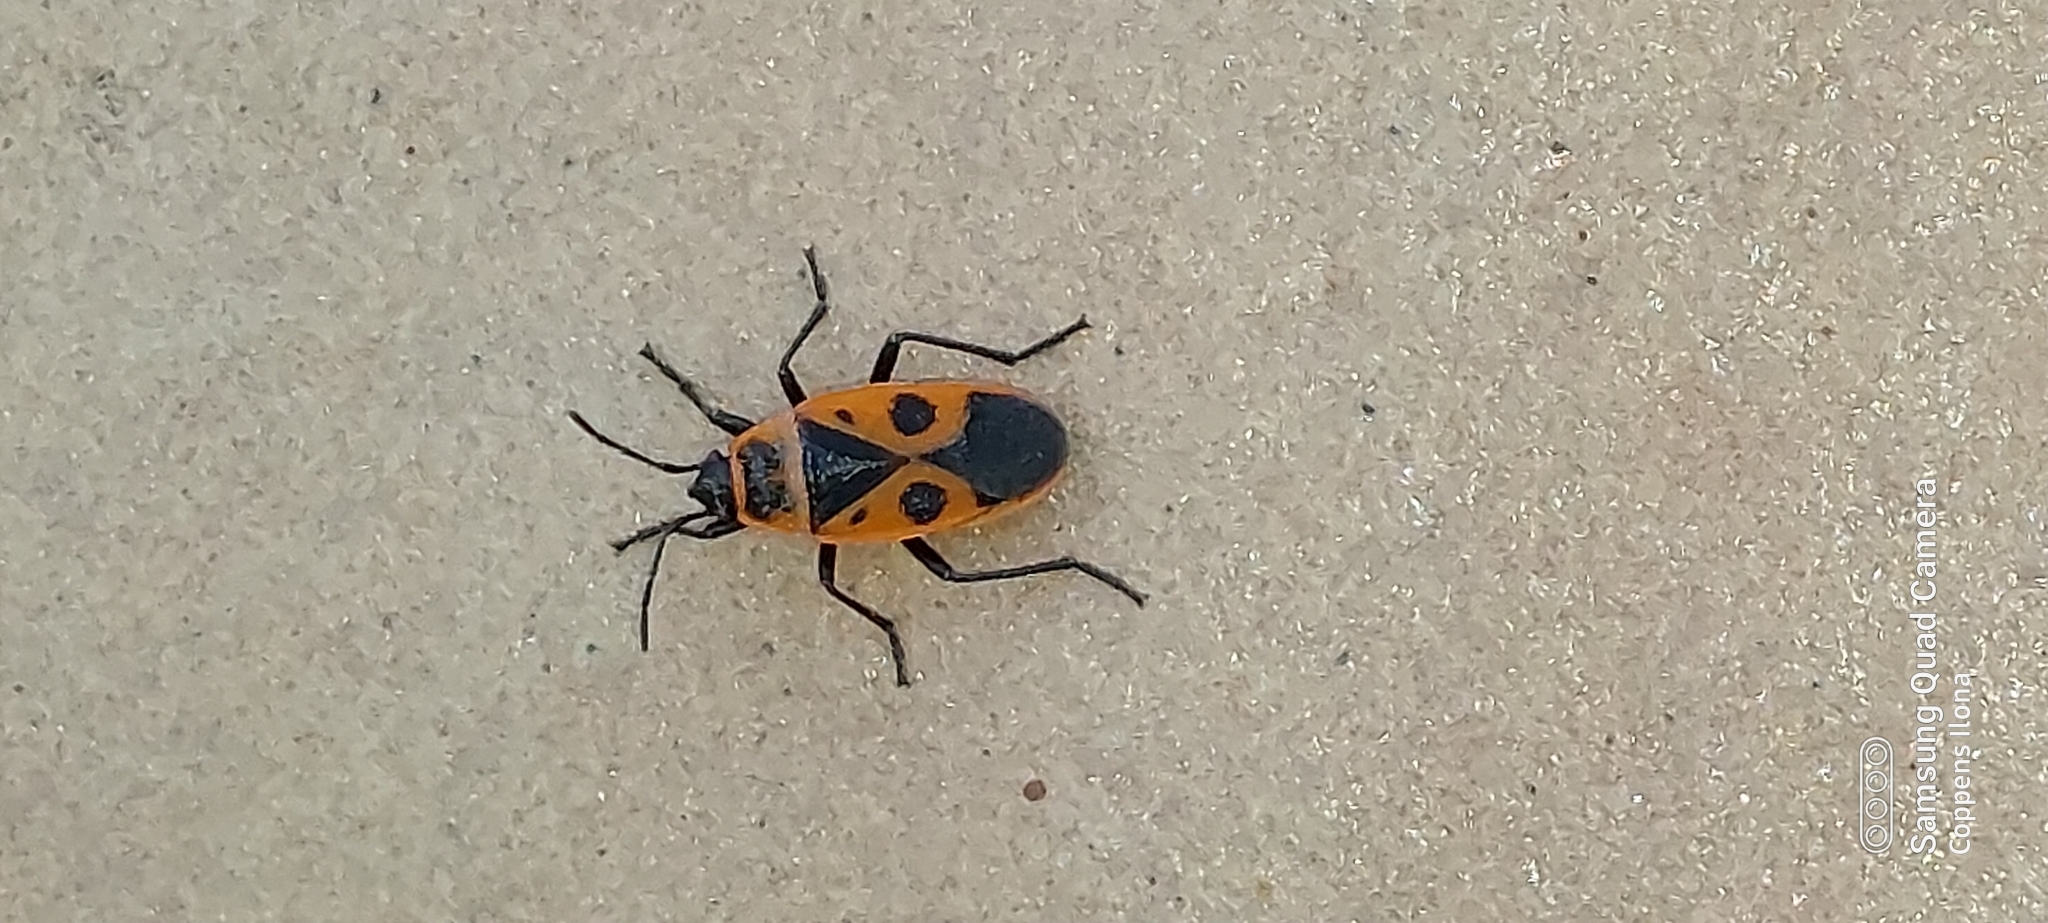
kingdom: Animalia
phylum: Arthropoda
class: Insecta
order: Hemiptera
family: Pyrrhocoridae
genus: Pyrrhocoris
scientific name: Pyrrhocoris apterus
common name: Firebug
